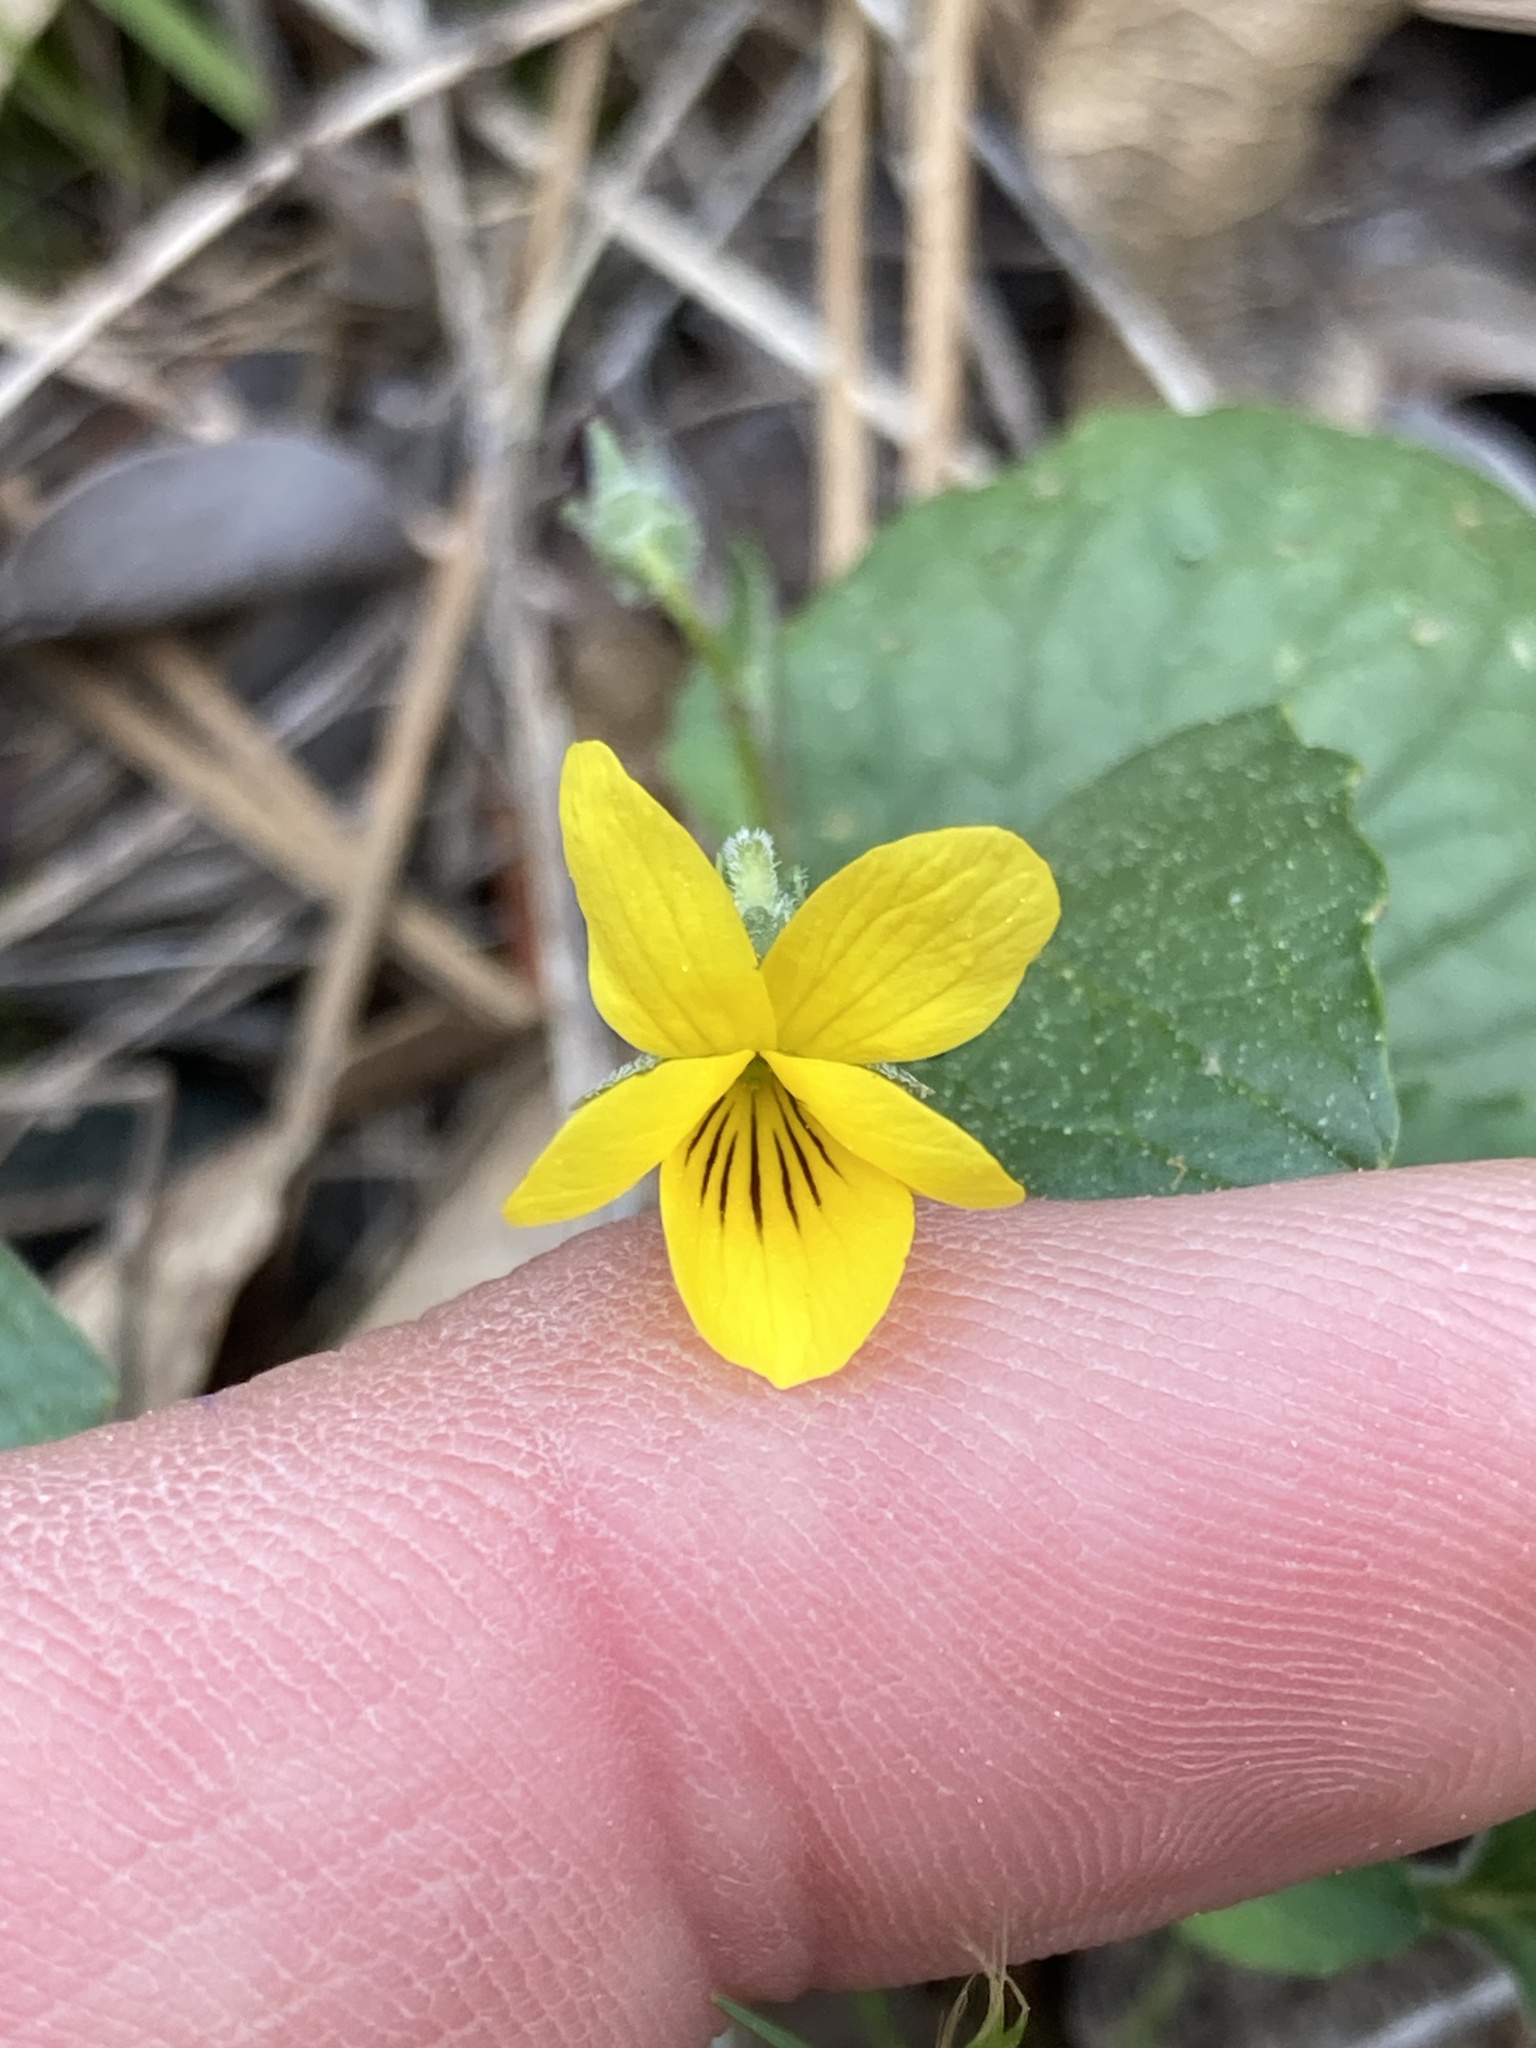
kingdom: Plantae
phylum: Tracheophyta
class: Magnoliopsida
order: Malpighiales
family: Violaceae
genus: Viola
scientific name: Viola purpurea
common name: Pine violet
